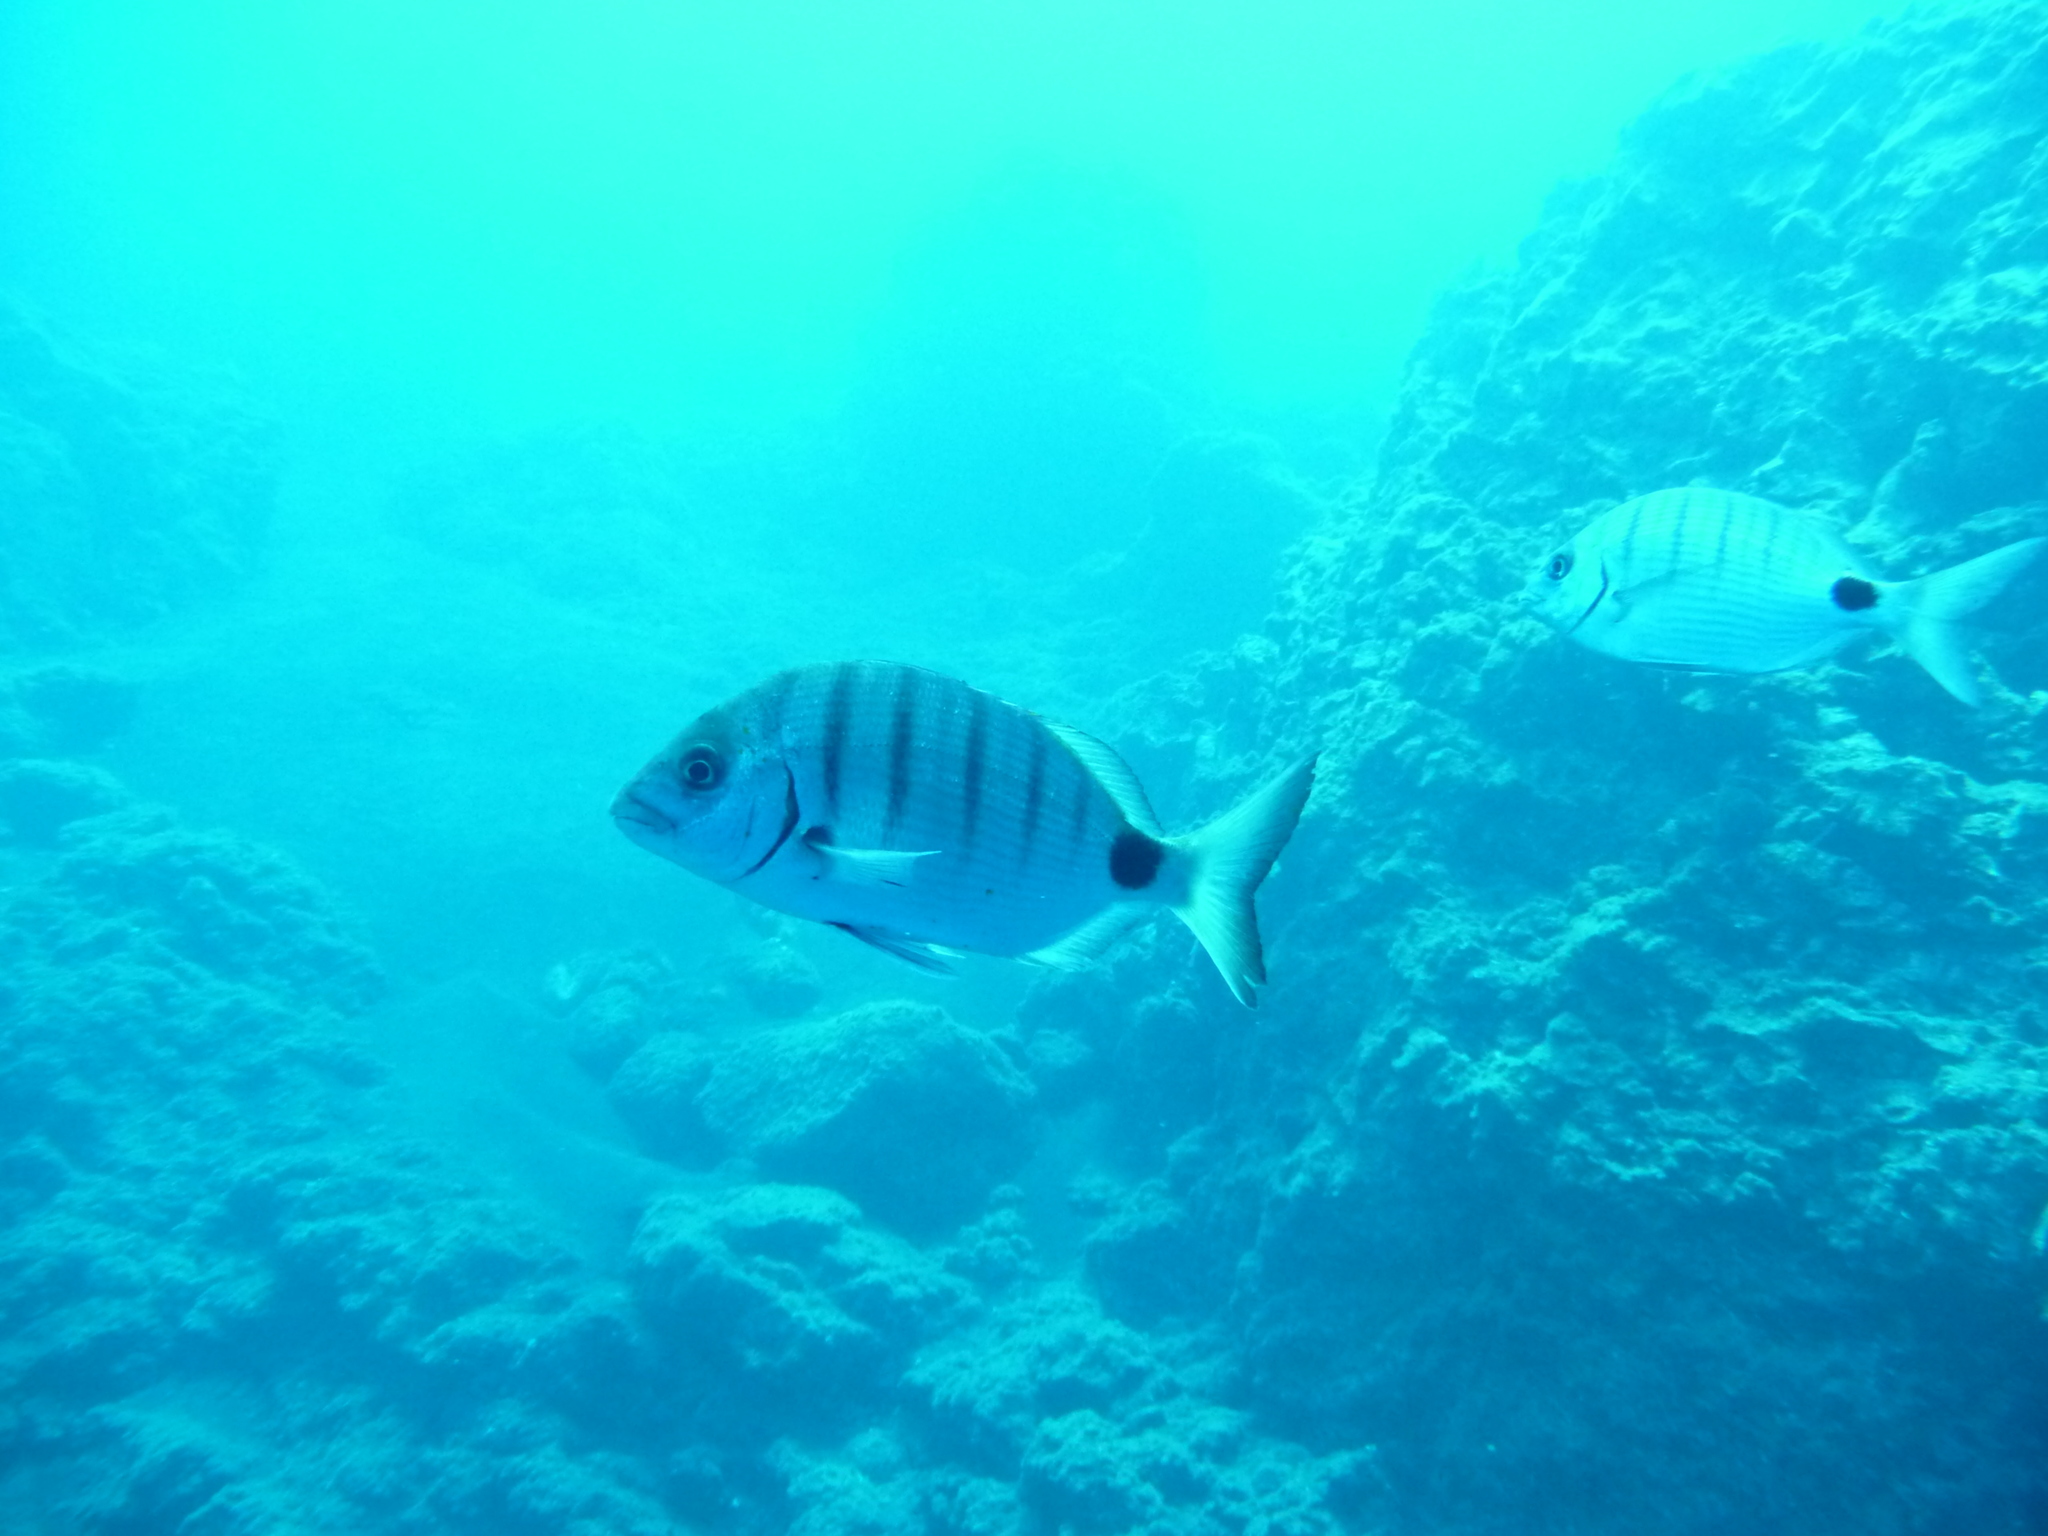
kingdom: Animalia
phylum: Chordata
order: Perciformes
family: Sparidae
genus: Diplodus
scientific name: Diplodus cadenati
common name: Moroccan white seabream
